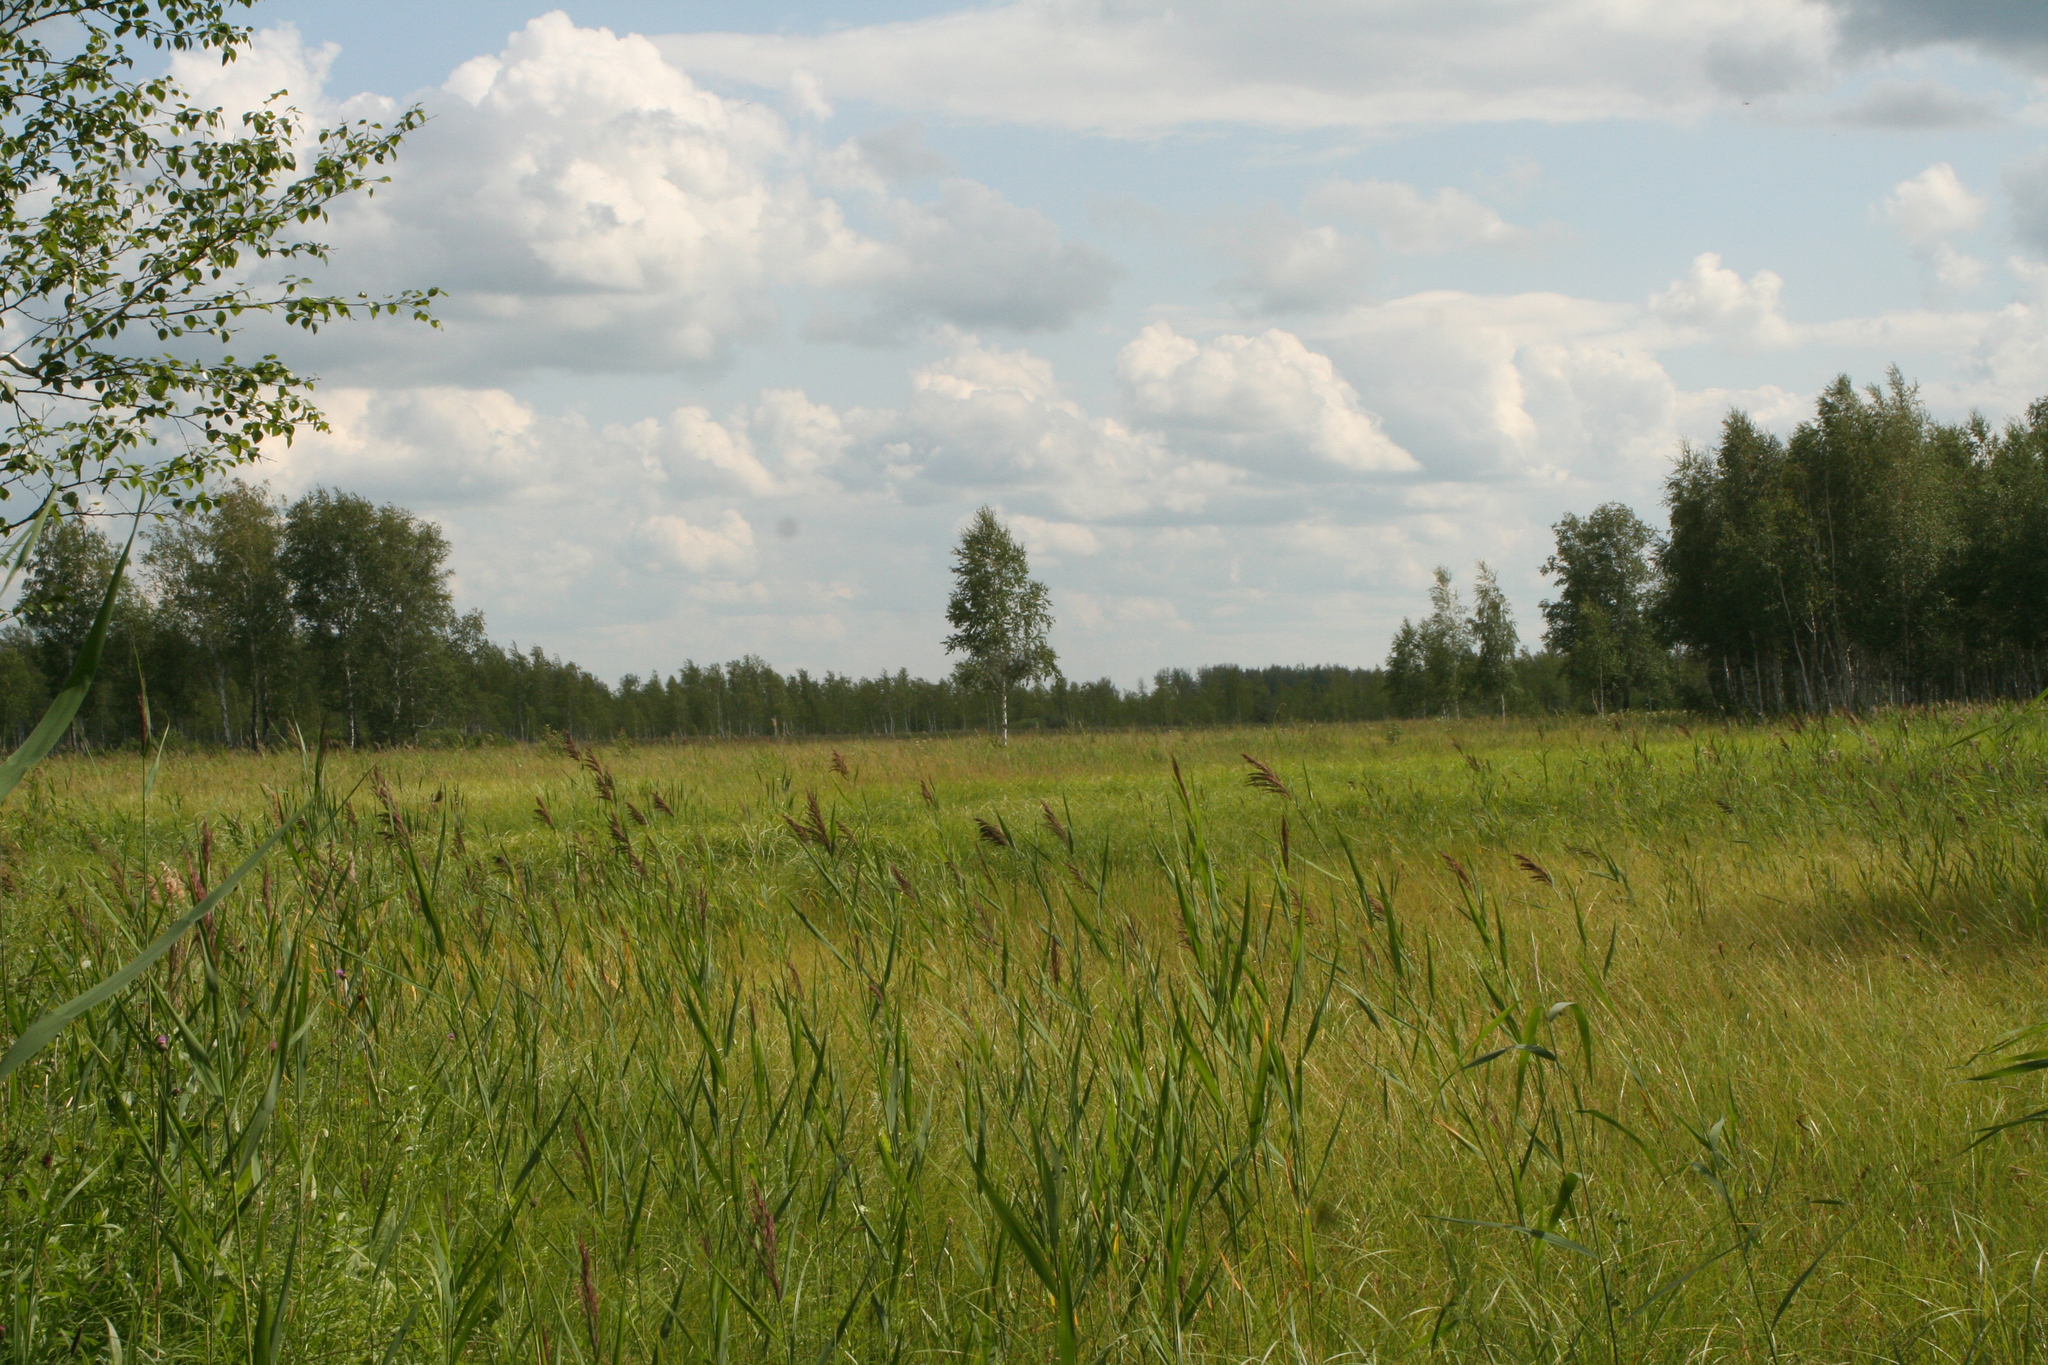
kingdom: Plantae
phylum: Tracheophyta
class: Liliopsida
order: Poales
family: Poaceae
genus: Phragmites
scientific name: Phragmites australis
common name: Common reed
